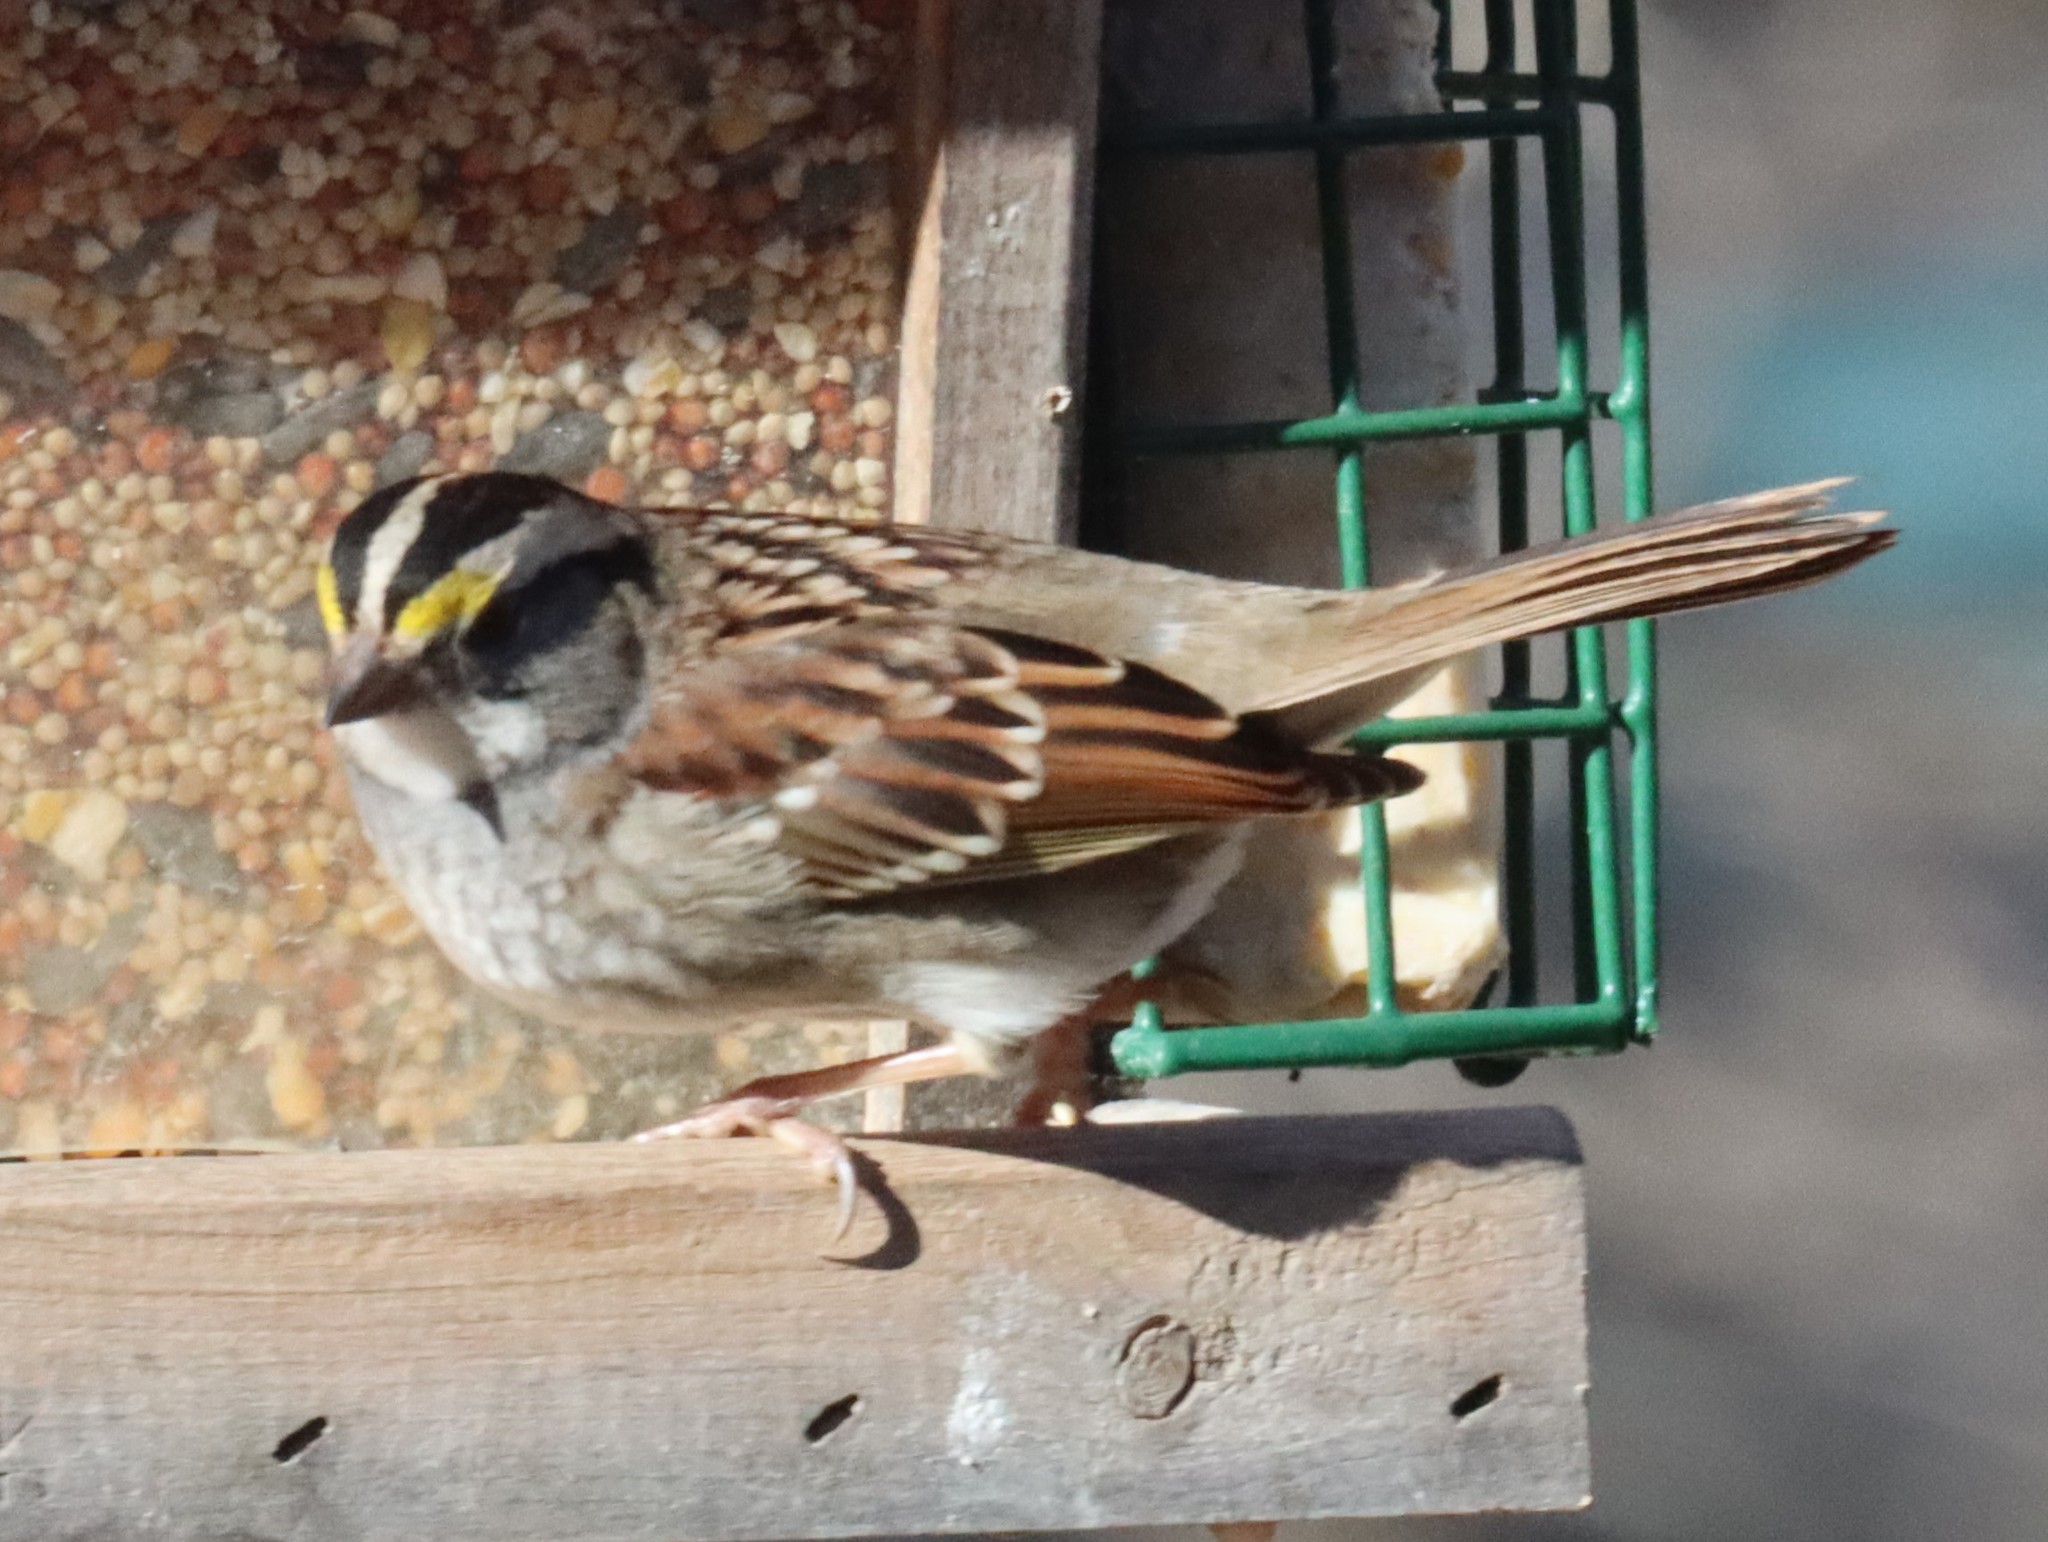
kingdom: Animalia
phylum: Chordata
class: Aves
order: Passeriformes
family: Passerellidae
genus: Zonotrichia
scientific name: Zonotrichia albicollis
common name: White-throated sparrow
